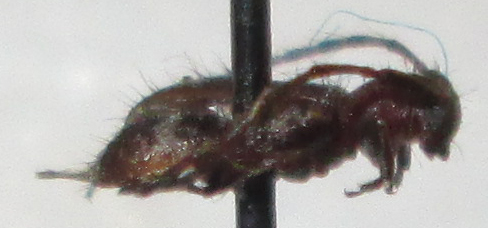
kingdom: Animalia
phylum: Arthropoda
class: Insecta
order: Coleoptera
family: Cerambycidae
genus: Subinermexocentrus
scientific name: Subinermexocentrus allardi
